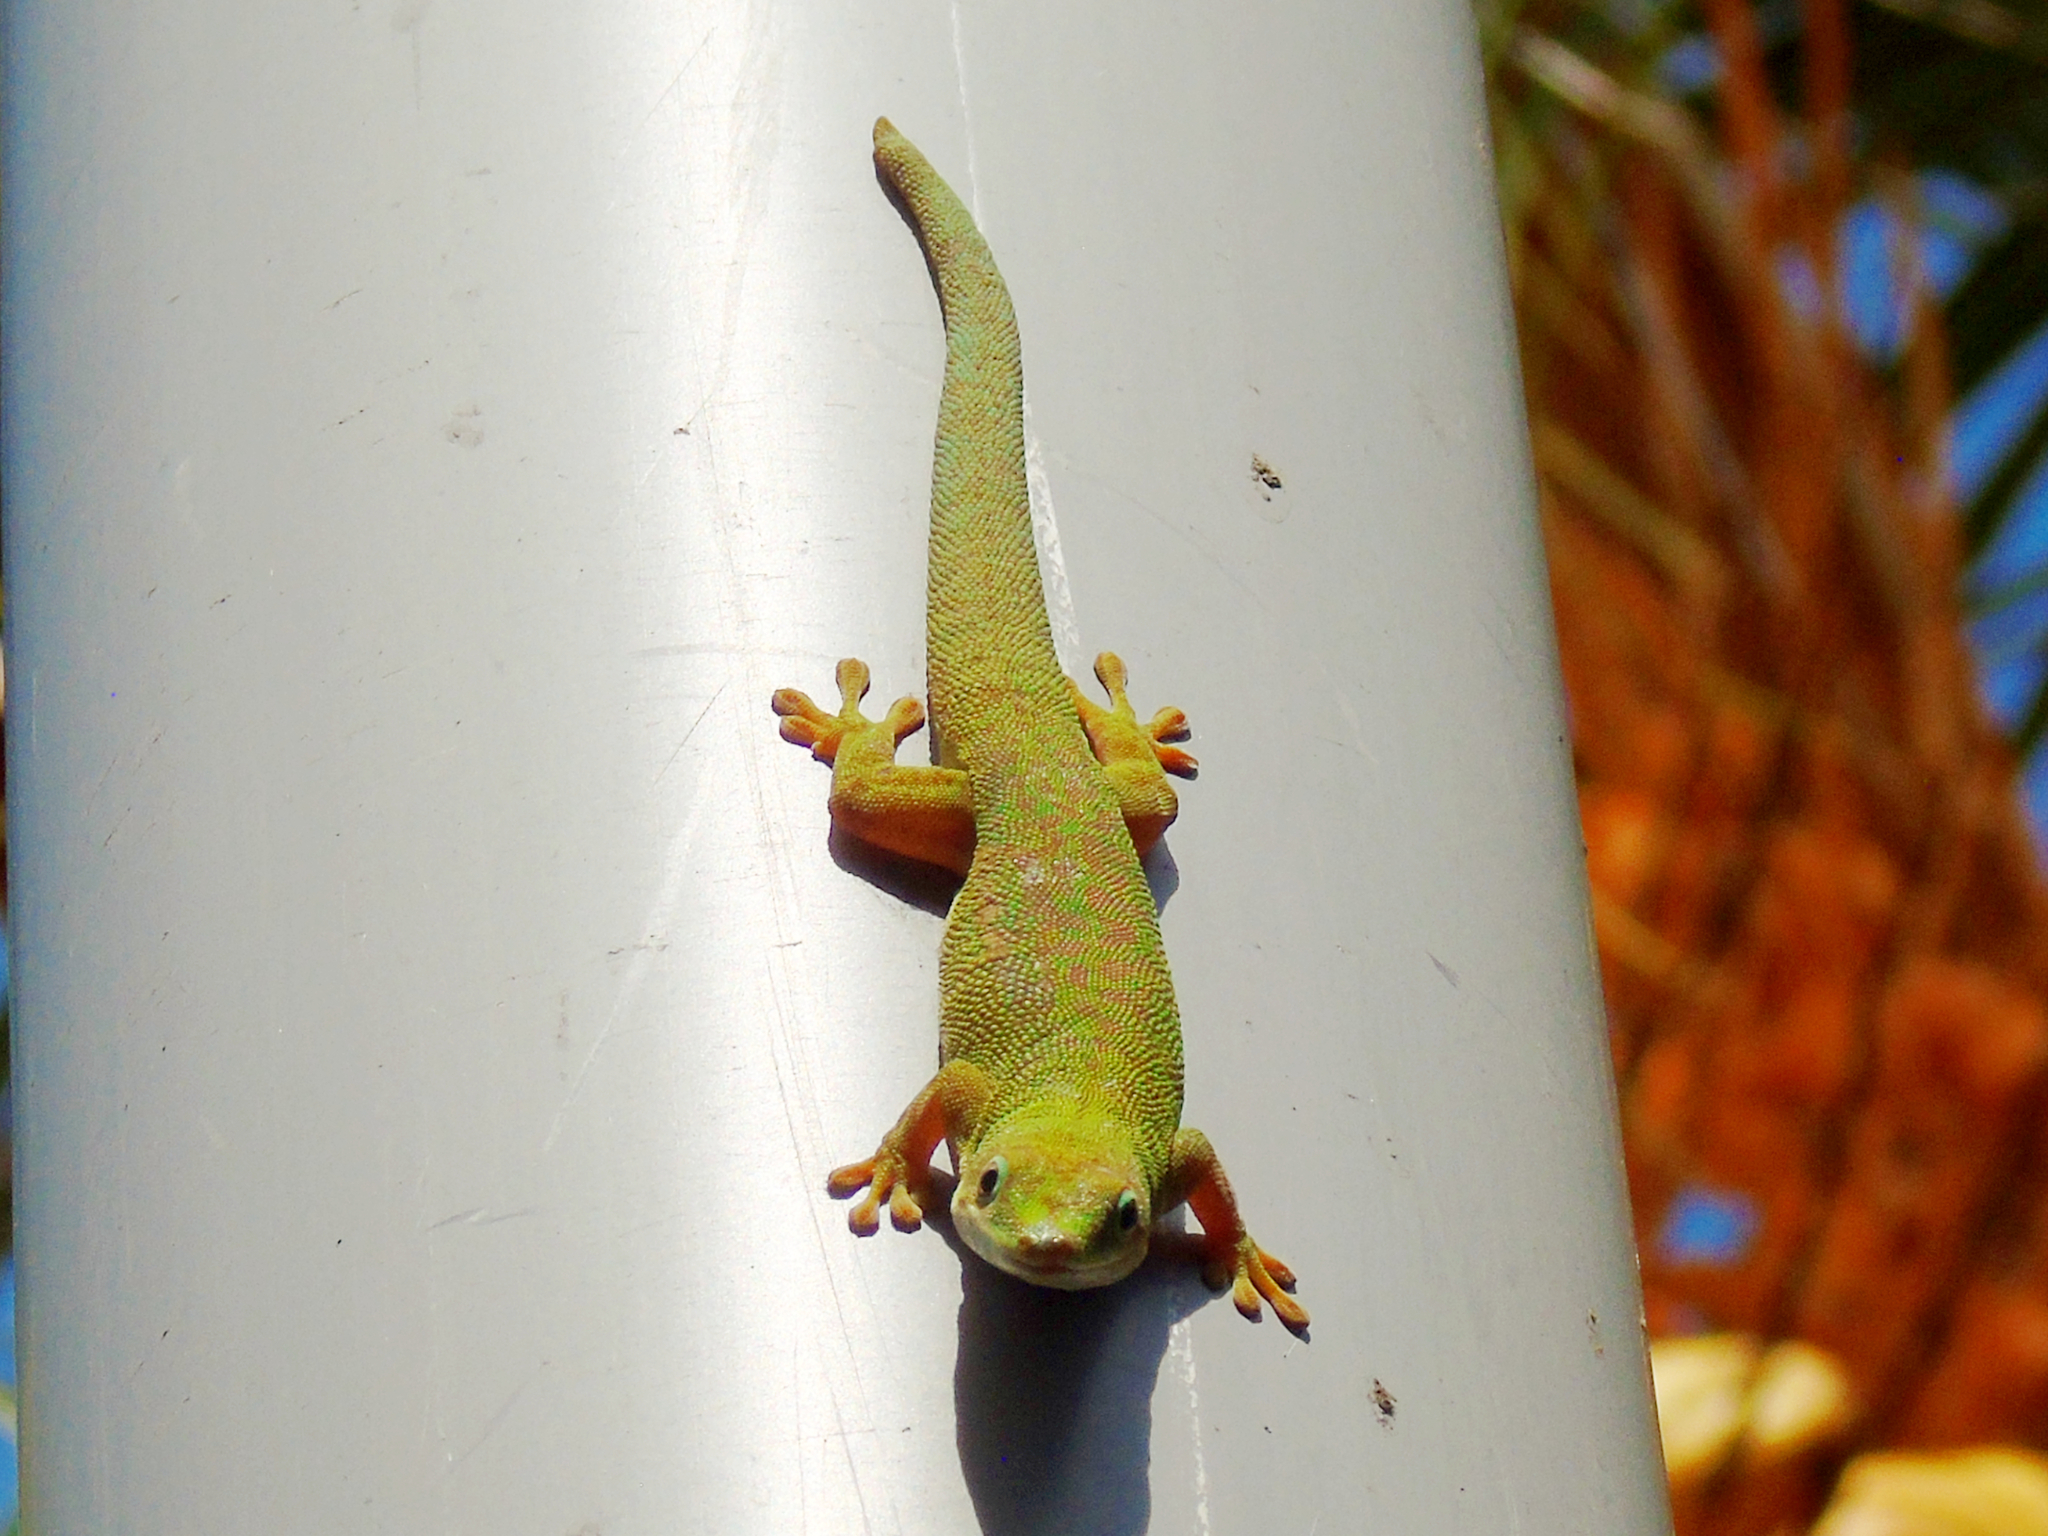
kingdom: Animalia
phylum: Chordata
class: Squamata
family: Gekkonidae
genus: Phelsuma
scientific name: Phelsuma dubia
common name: Zanzibar day gecko
